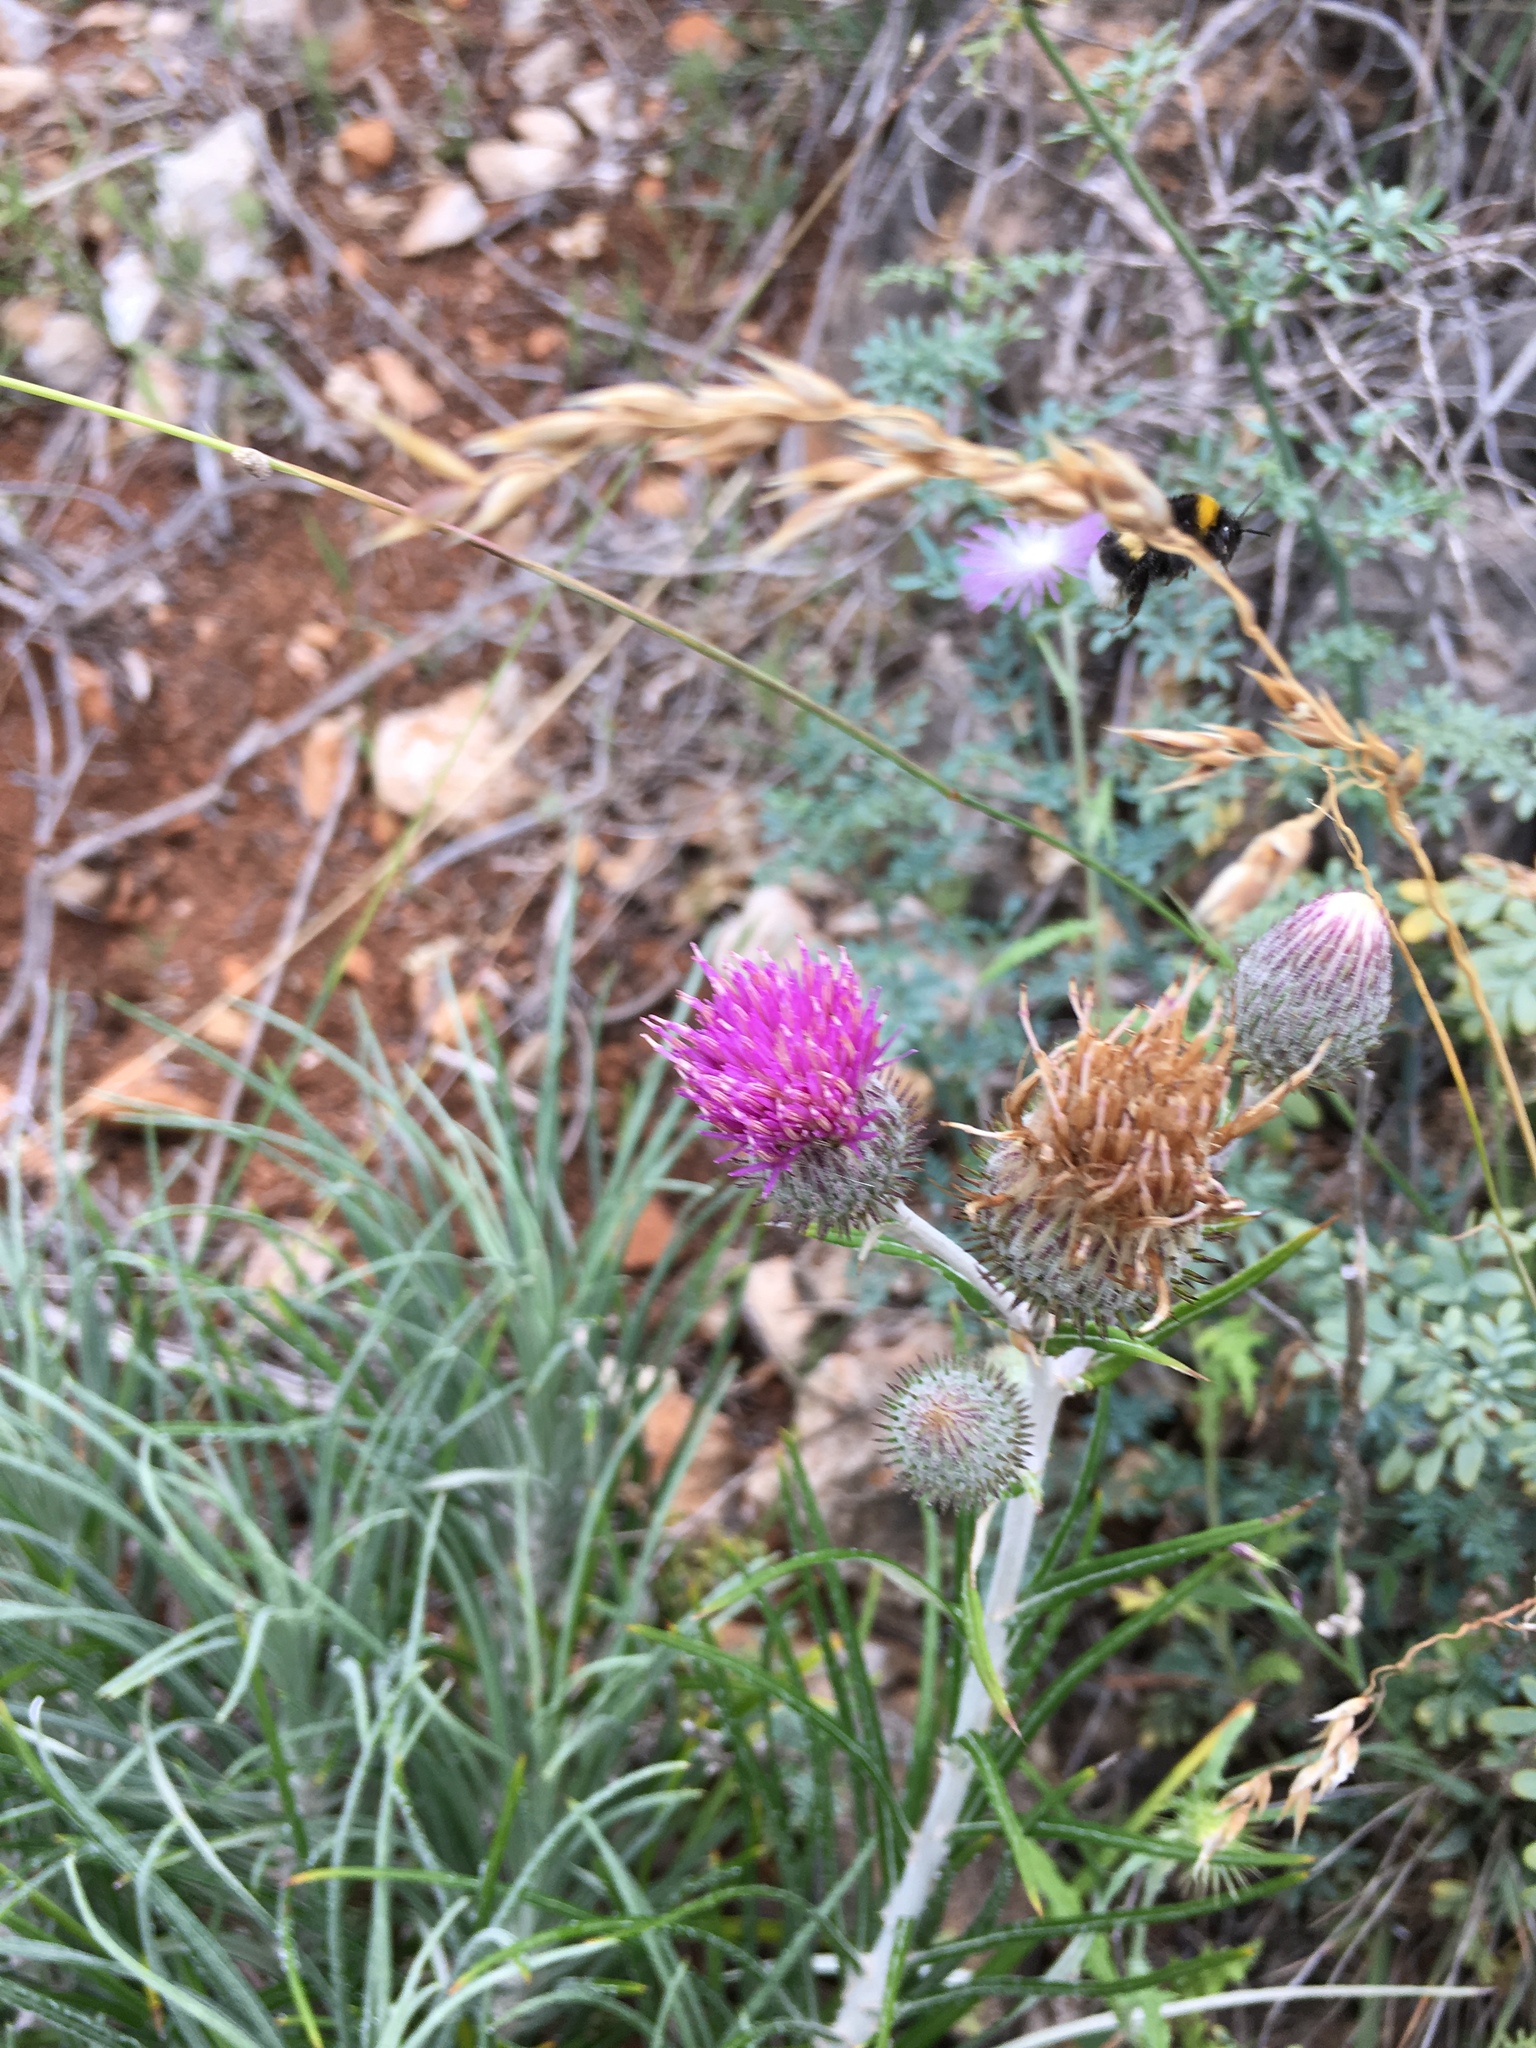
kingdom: Plantae
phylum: Tracheophyta
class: Magnoliopsida
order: Asterales
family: Asteraceae
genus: Ptilostemon
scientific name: Ptilostemon gnaphaloides
